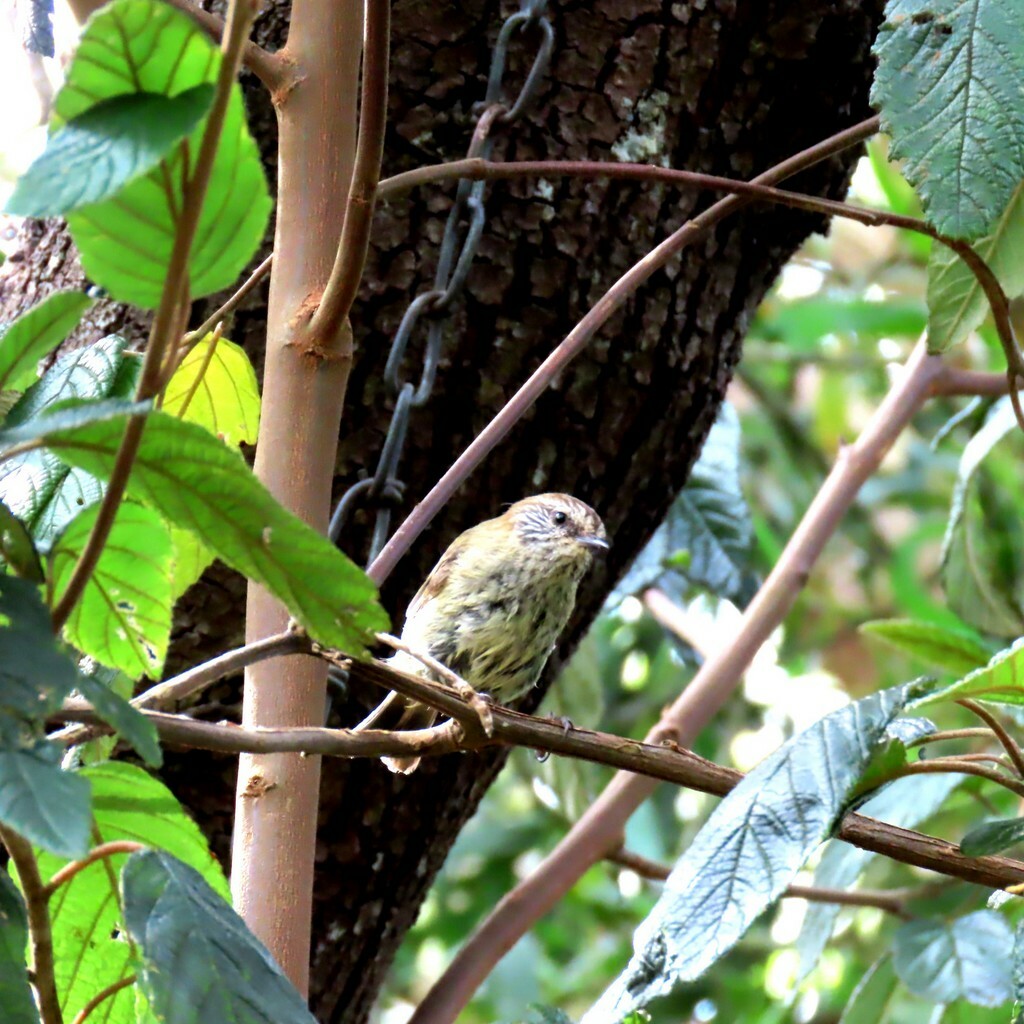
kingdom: Animalia
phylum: Chordata
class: Aves
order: Passeriformes
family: Acanthizidae
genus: Acanthiza
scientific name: Acanthiza lineata
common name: Striated thornbill
